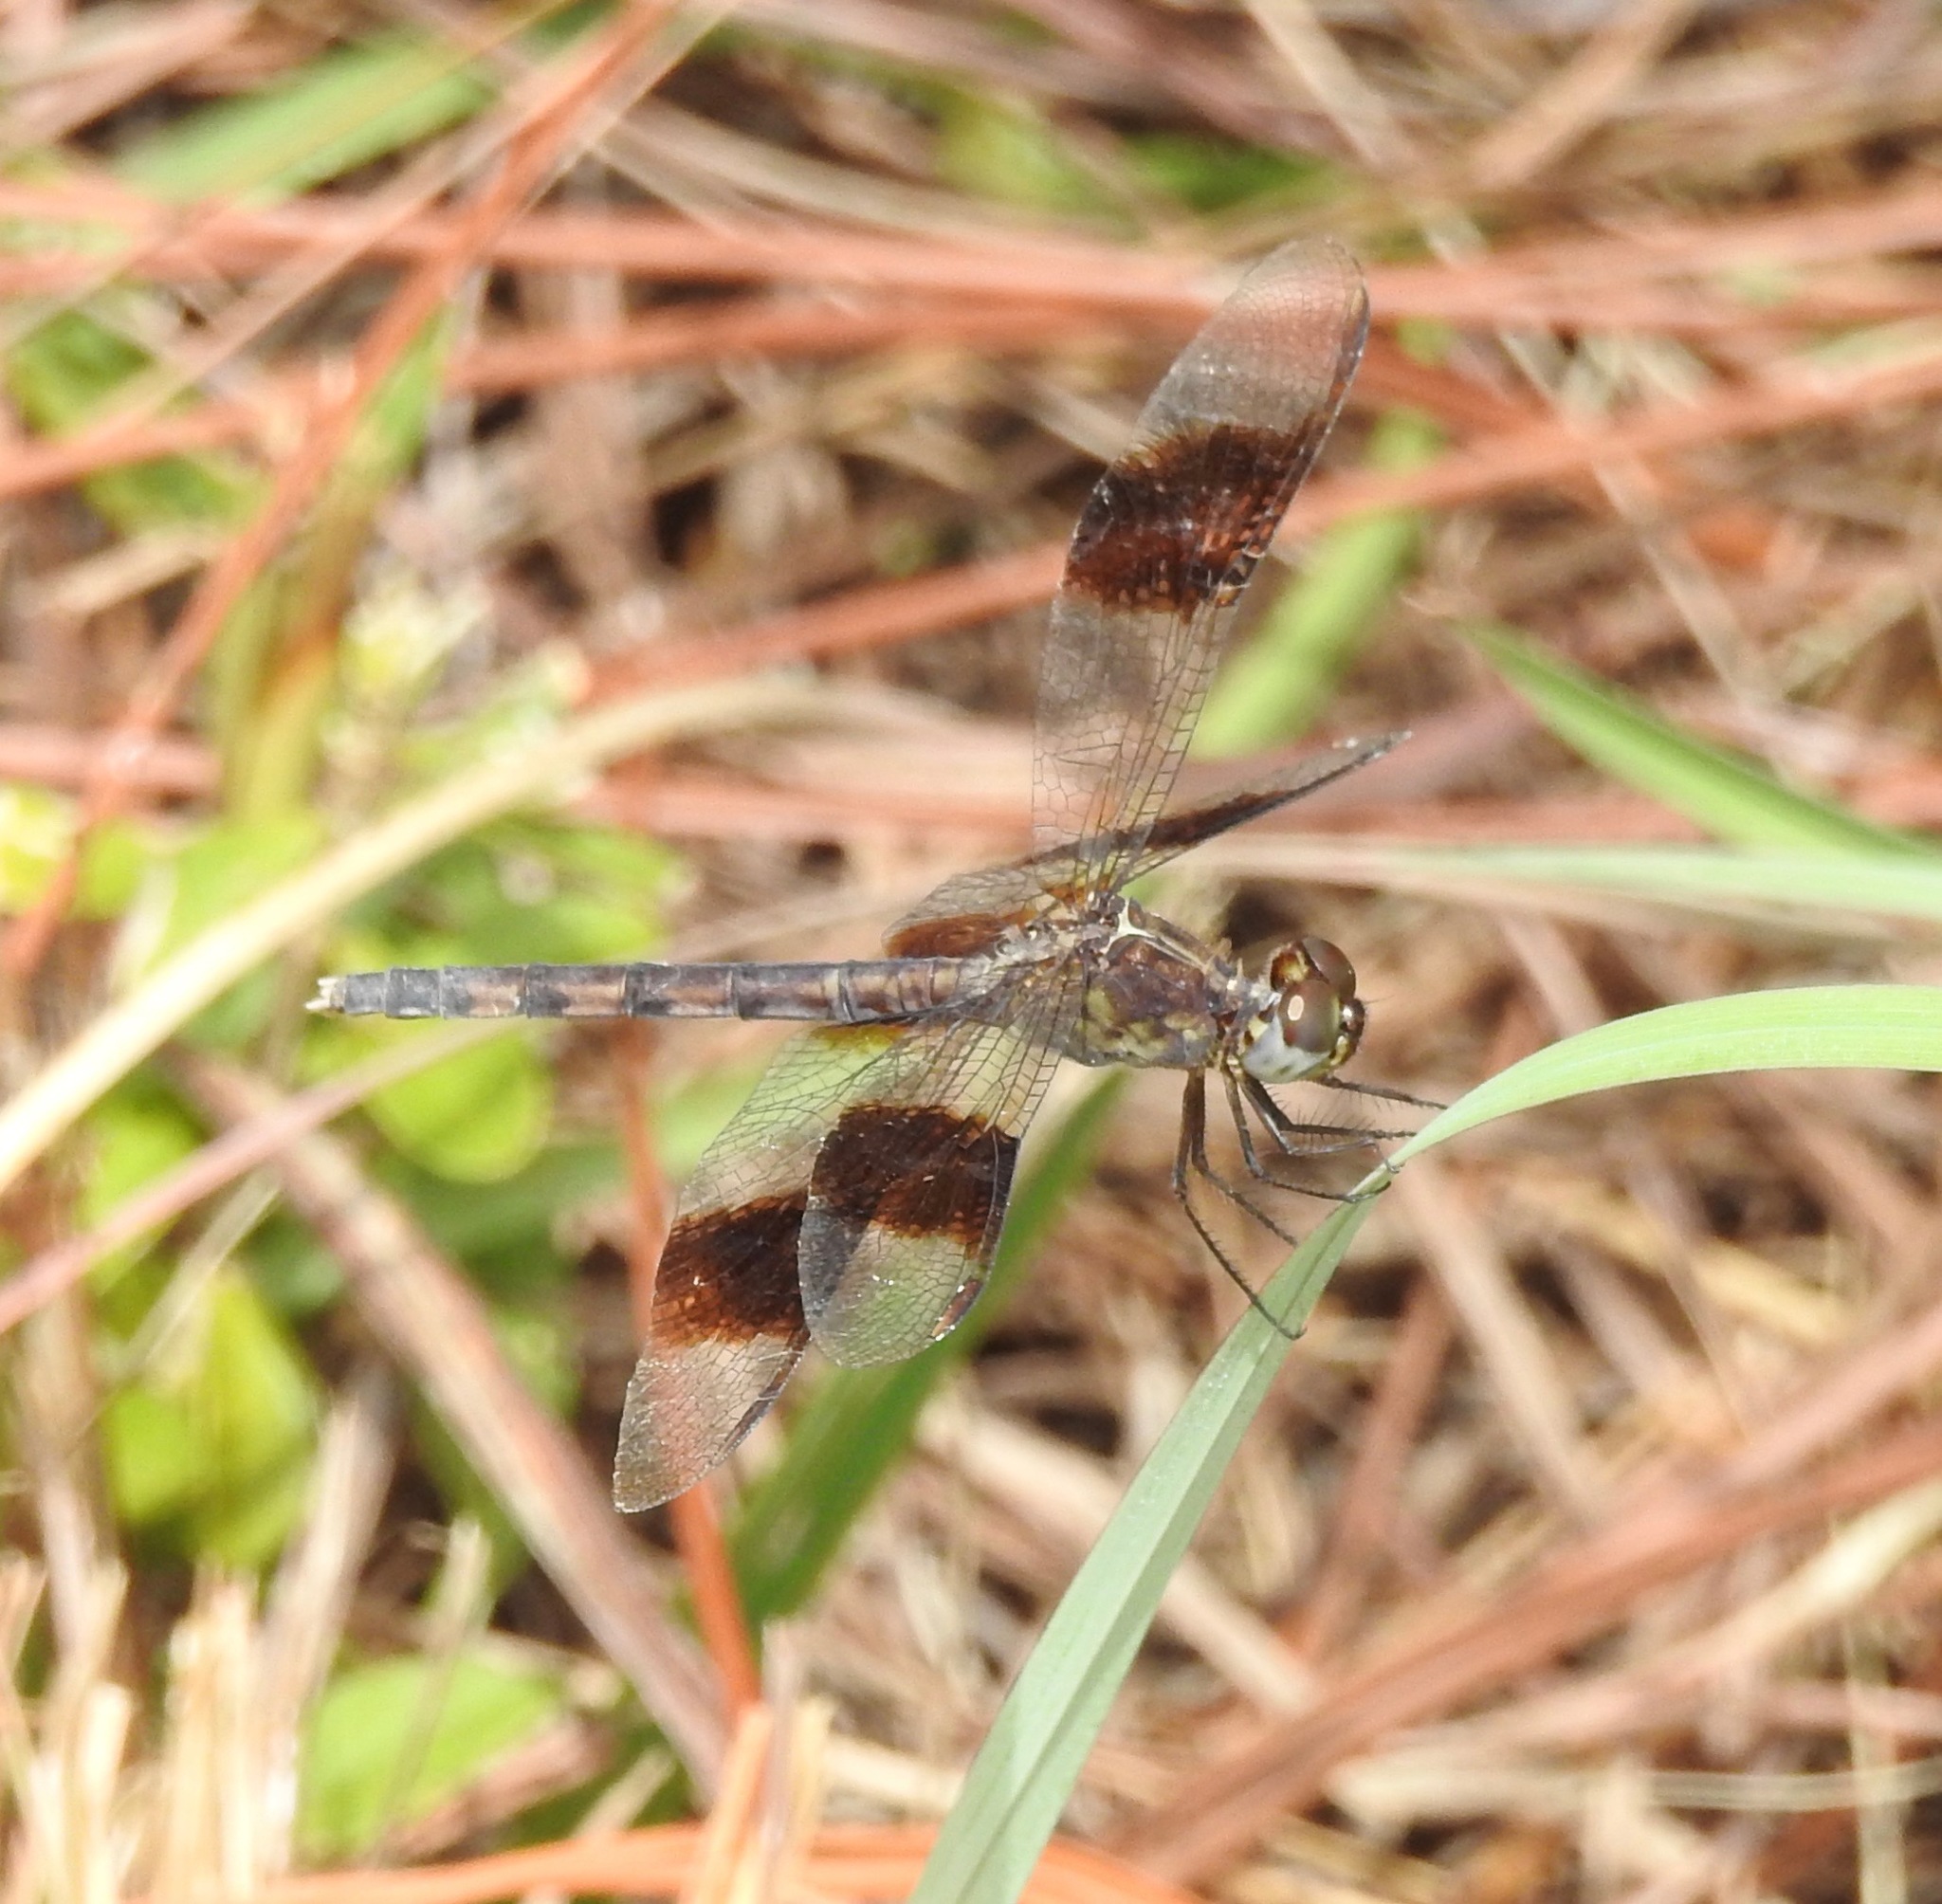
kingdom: Animalia
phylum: Arthropoda
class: Insecta
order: Odonata
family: Libellulidae
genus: Erythrodiplax
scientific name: Erythrodiplax umbrata
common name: Band-winged dragonlet
